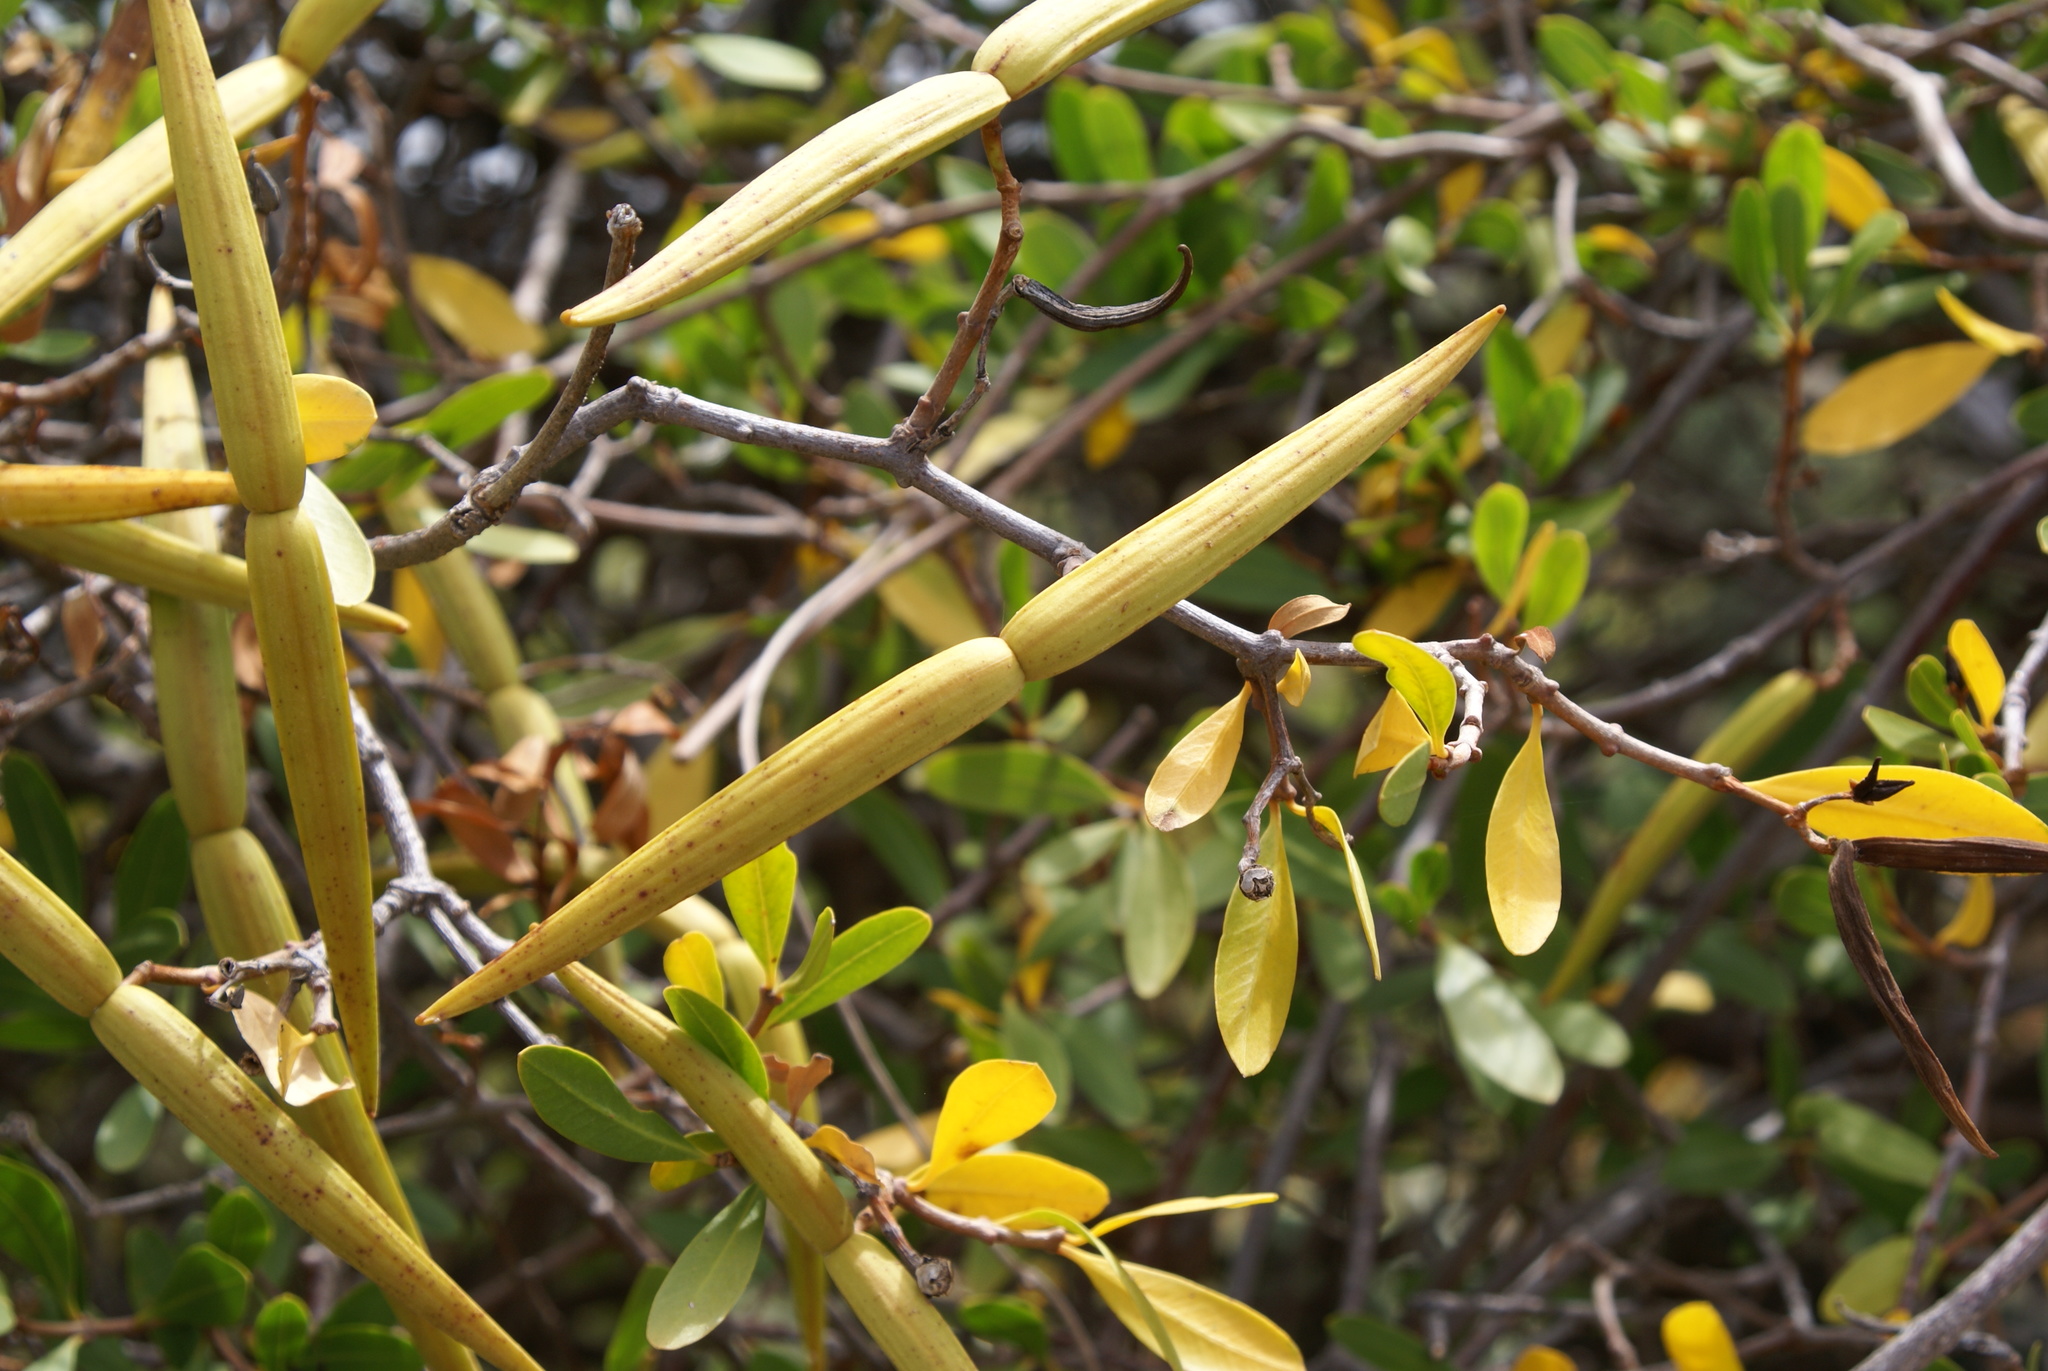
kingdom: Plantae
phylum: Tracheophyta
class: Magnoliopsida
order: Gentianales
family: Apocynaceae
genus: Periploca
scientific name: Periploca laevigata
